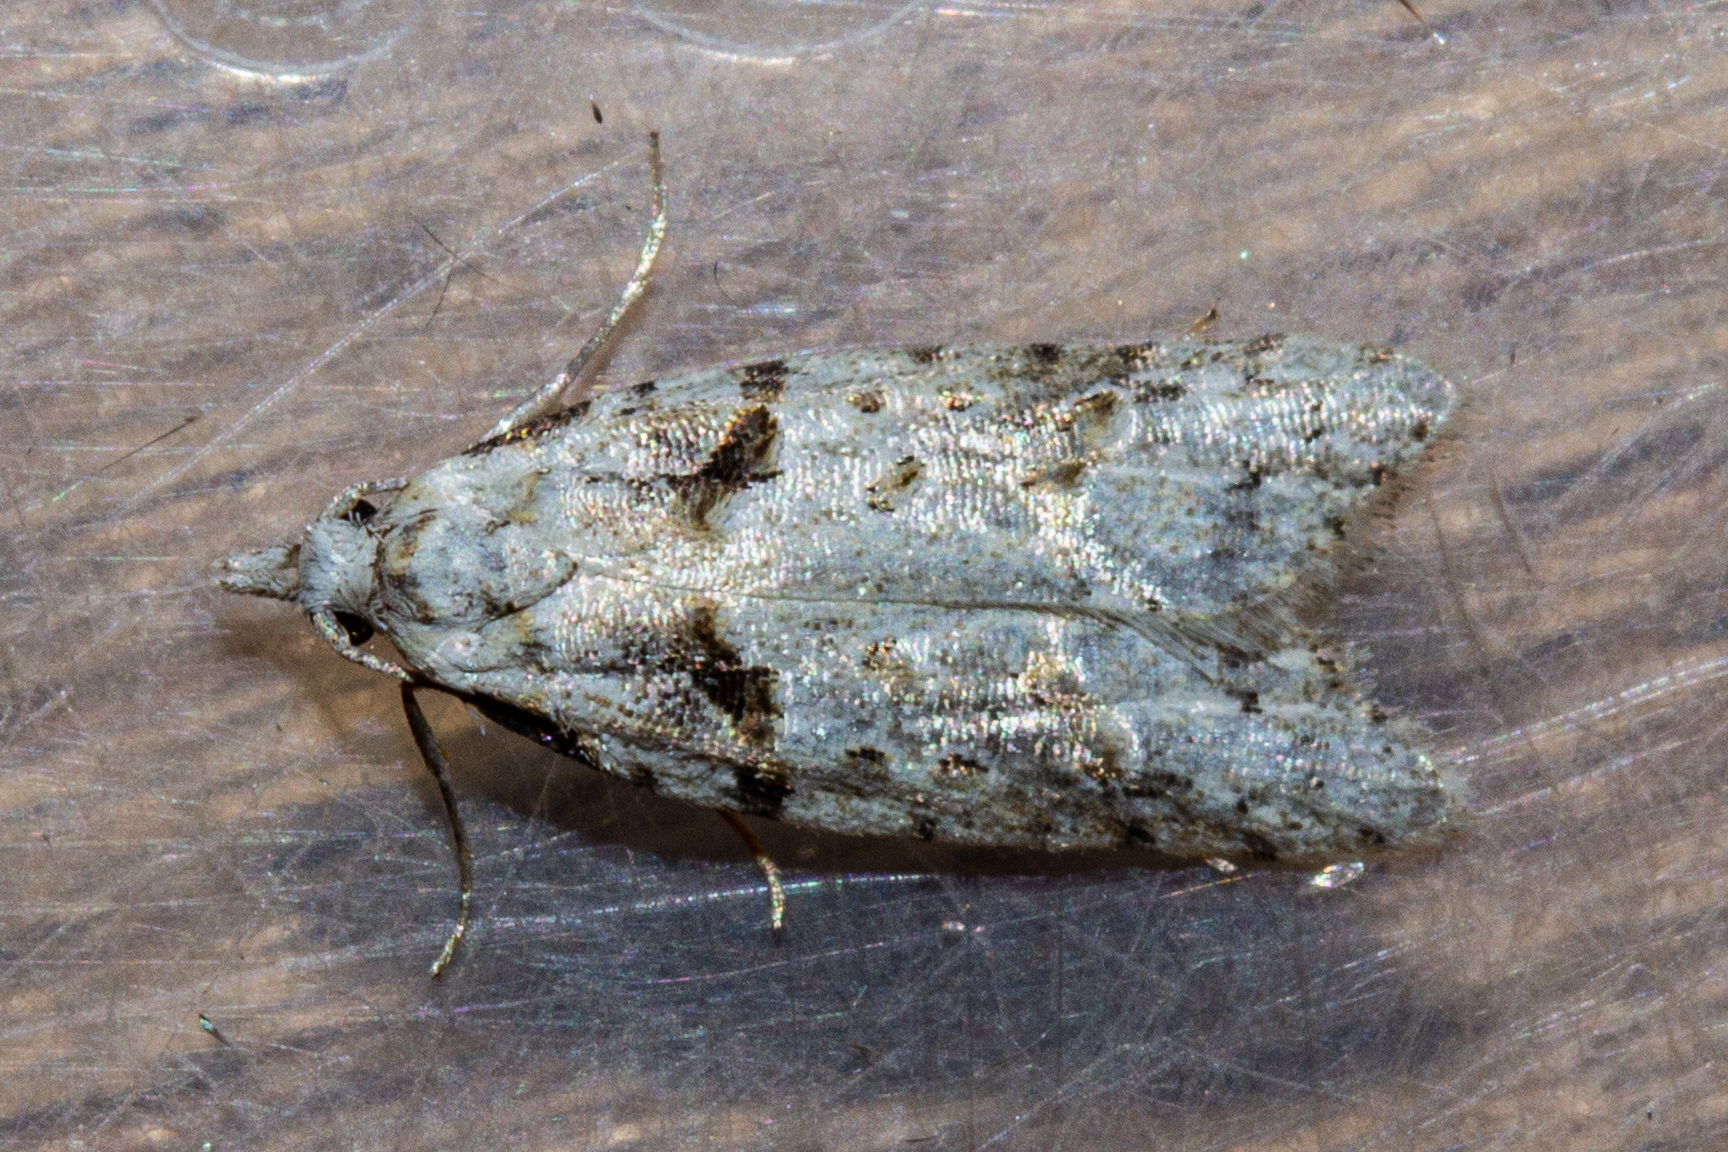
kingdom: Animalia
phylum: Arthropoda
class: Insecta
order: Lepidoptera
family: Carposinidae
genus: Carposina
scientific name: Carposina
